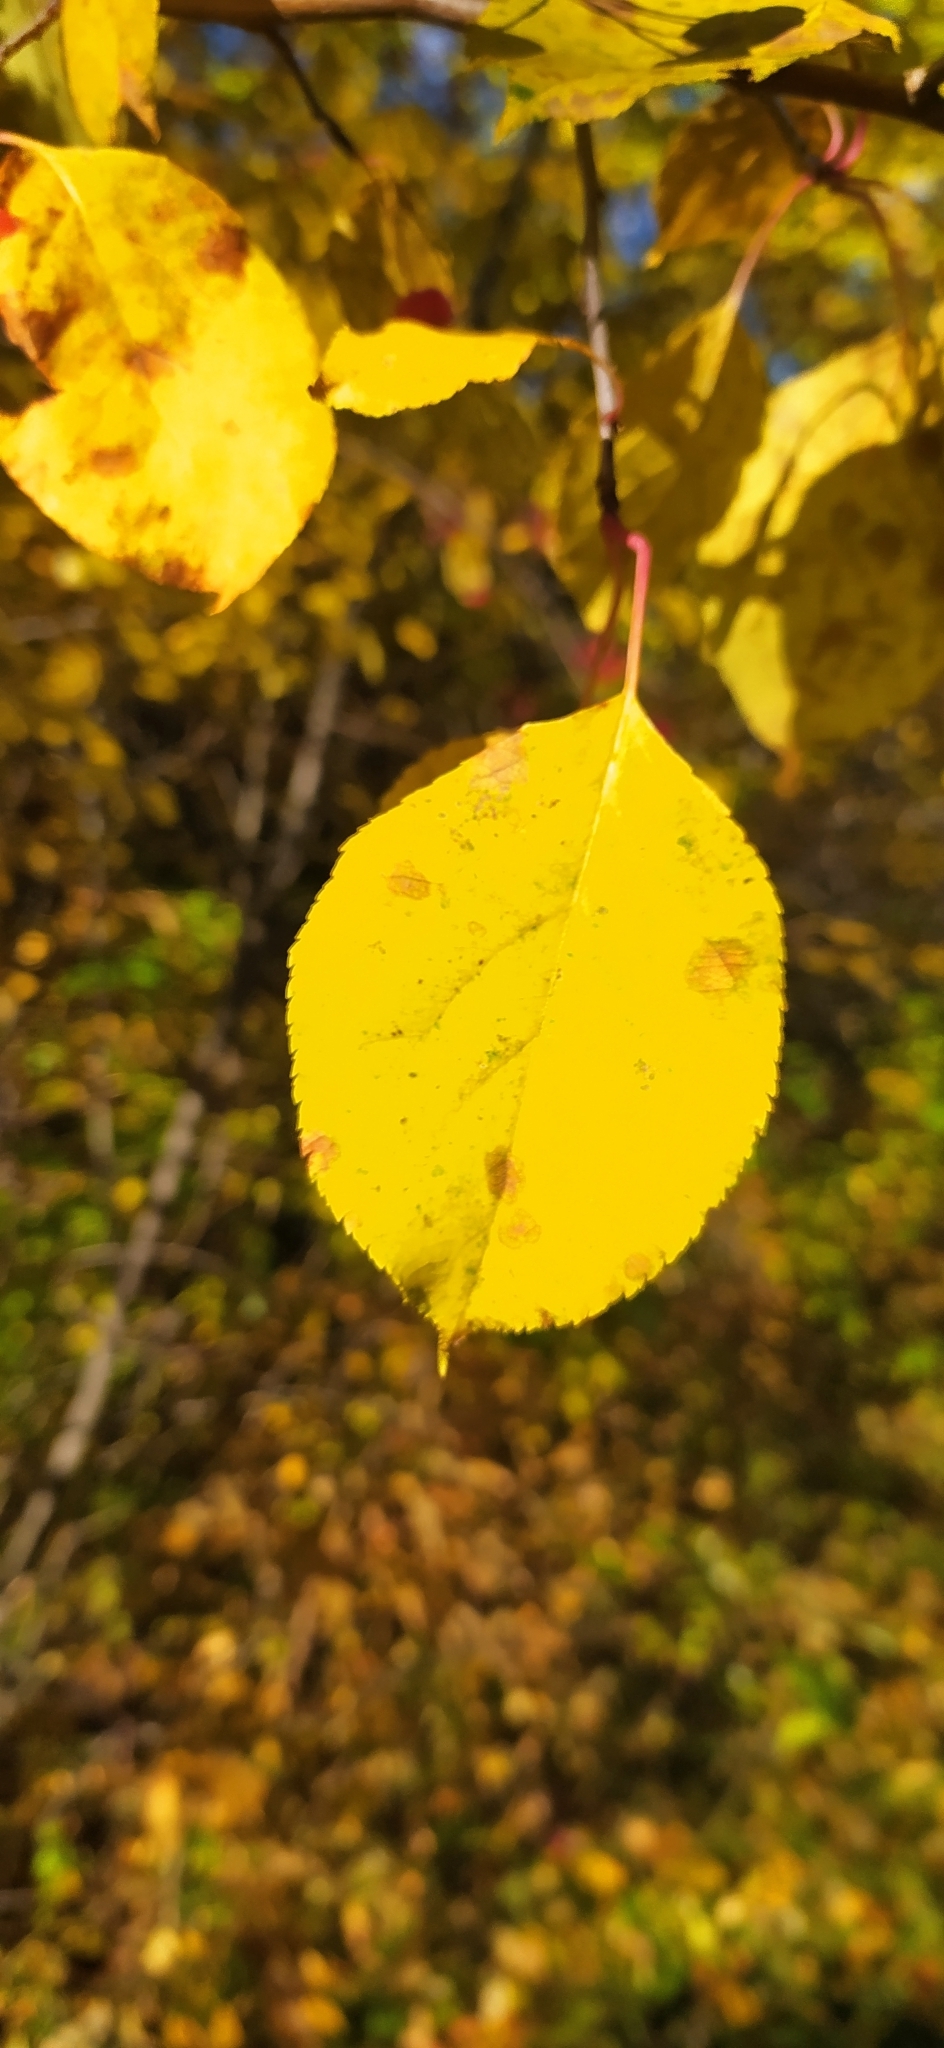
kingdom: Plantae
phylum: Tracheophyta
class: Magnoliopsida
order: Rosales
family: Rosaceae
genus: Malus
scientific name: Malus baccata
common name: Siberian crab
